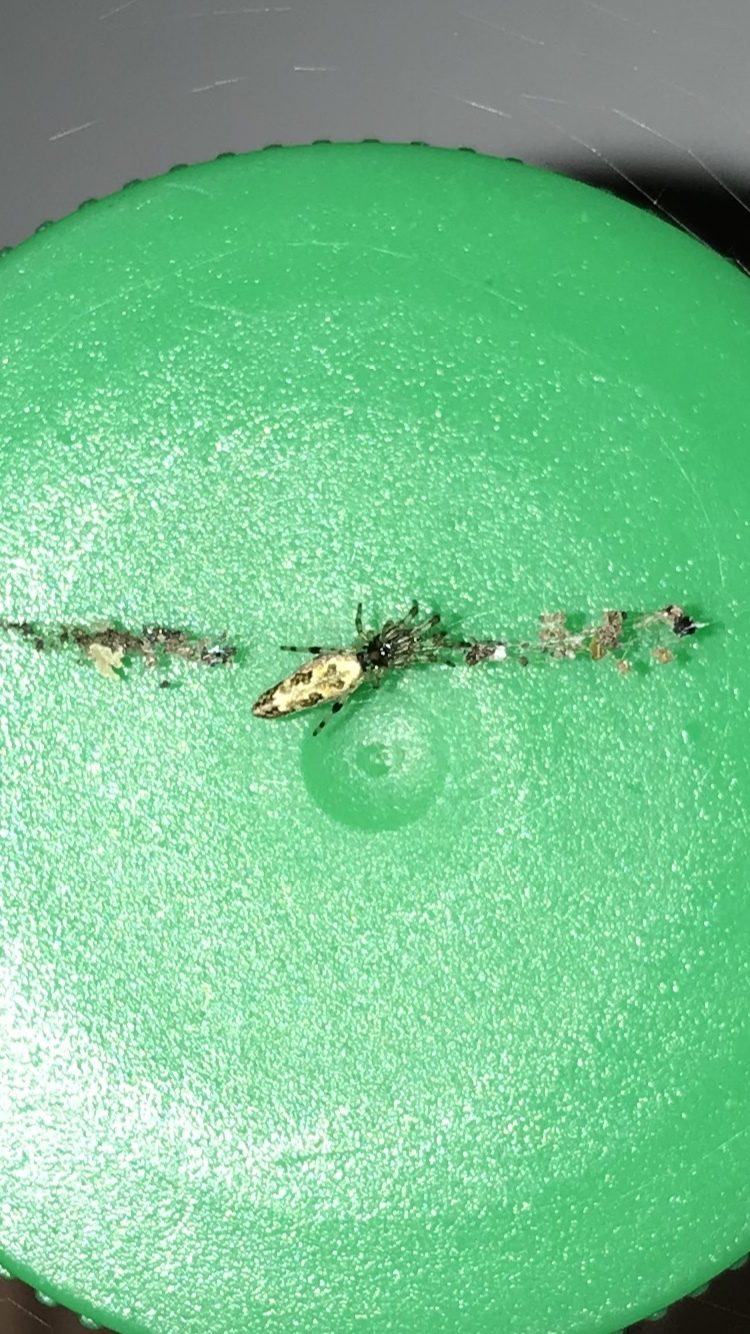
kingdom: Animalia
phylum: Arthropoda
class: Arachnida
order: Araneae
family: Araneidae
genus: Cyclosa
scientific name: Cyclosa caroli
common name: Orb weavers
